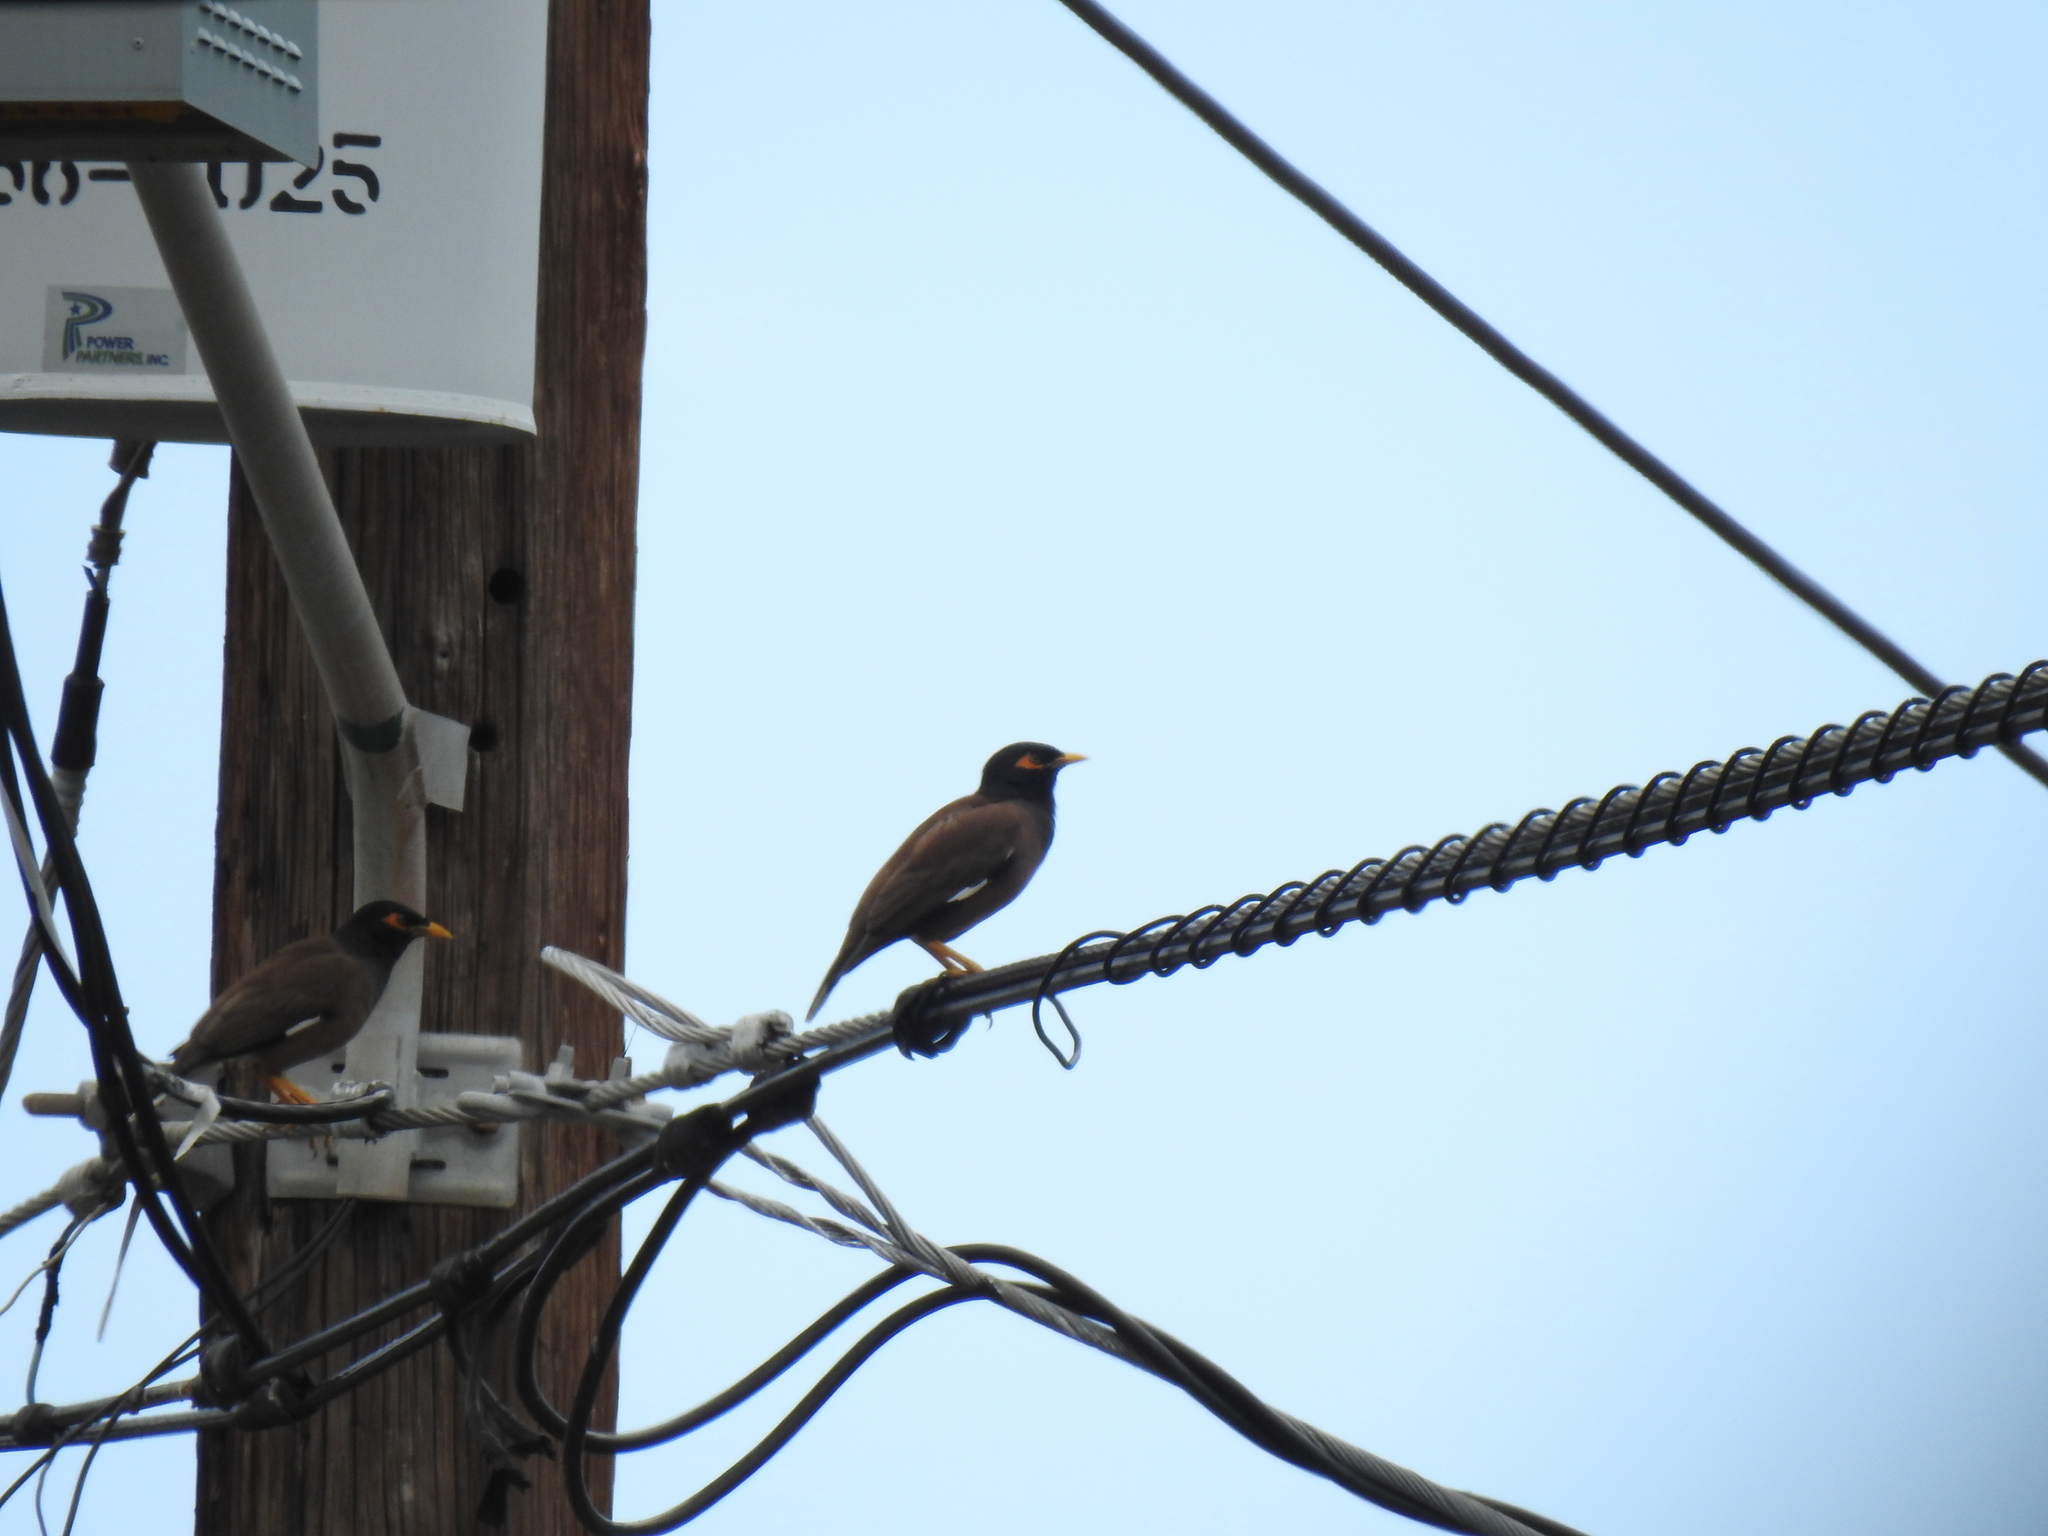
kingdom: Animalia
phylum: Chordata
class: Aves
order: Passeriformes
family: Sturnidae
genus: Acridotheres
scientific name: Acridotheres tristis
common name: Common myna
